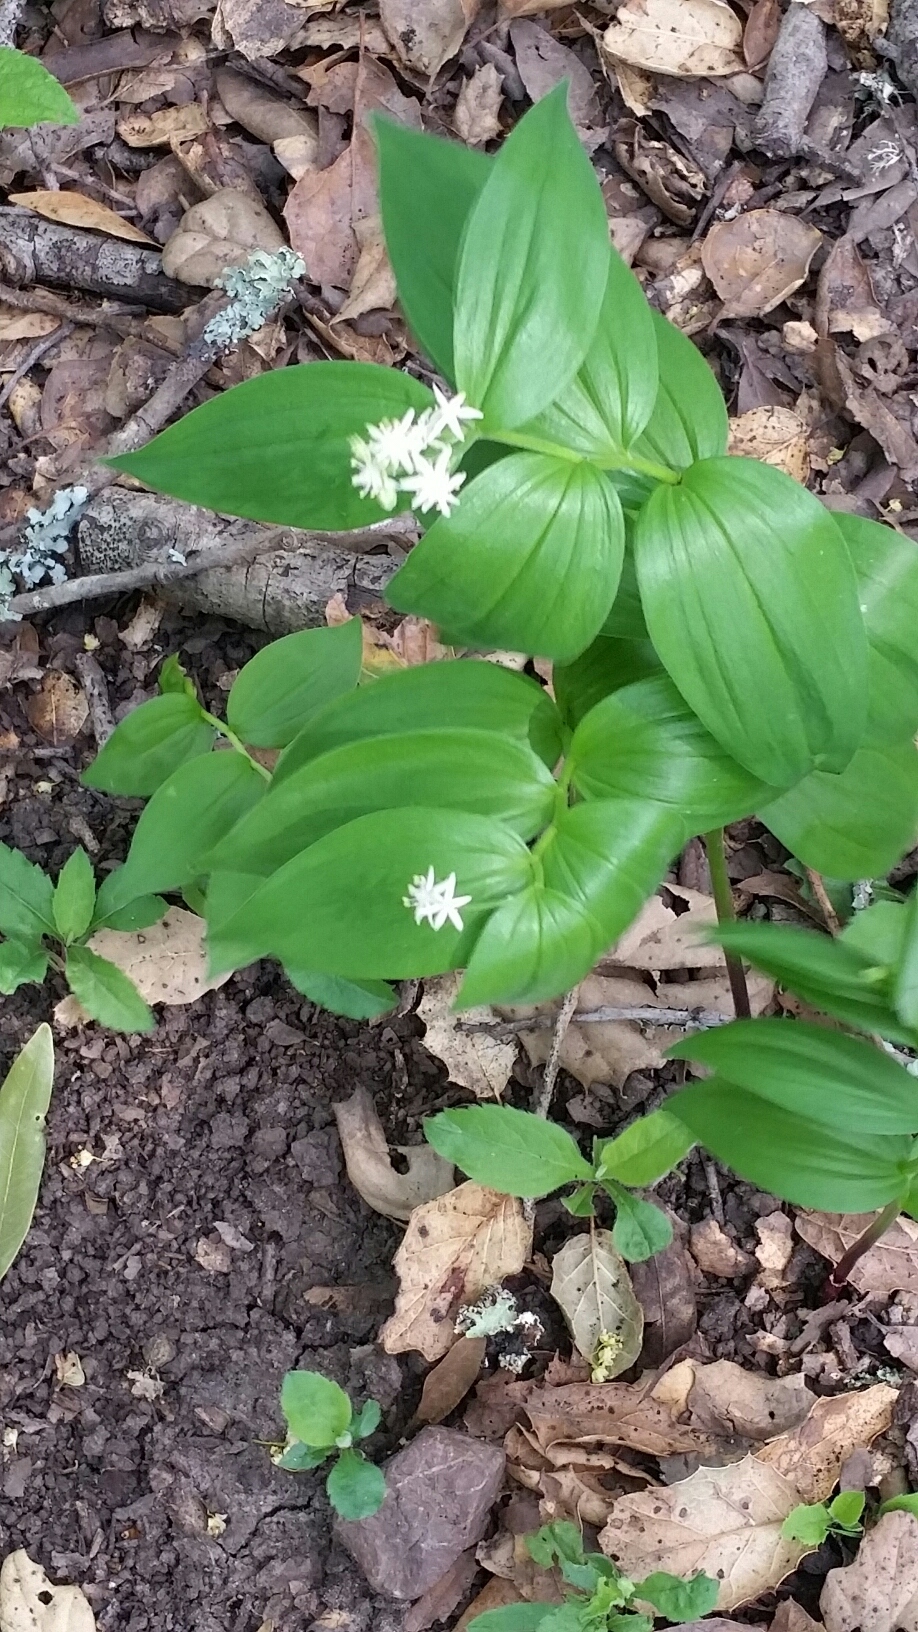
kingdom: Plantae
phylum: Tracheophyta
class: Liliopsida
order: Asparagales
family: Asparagaceae
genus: Maianthemum
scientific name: Maianthemum stellatum
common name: Little false solomon's seal
